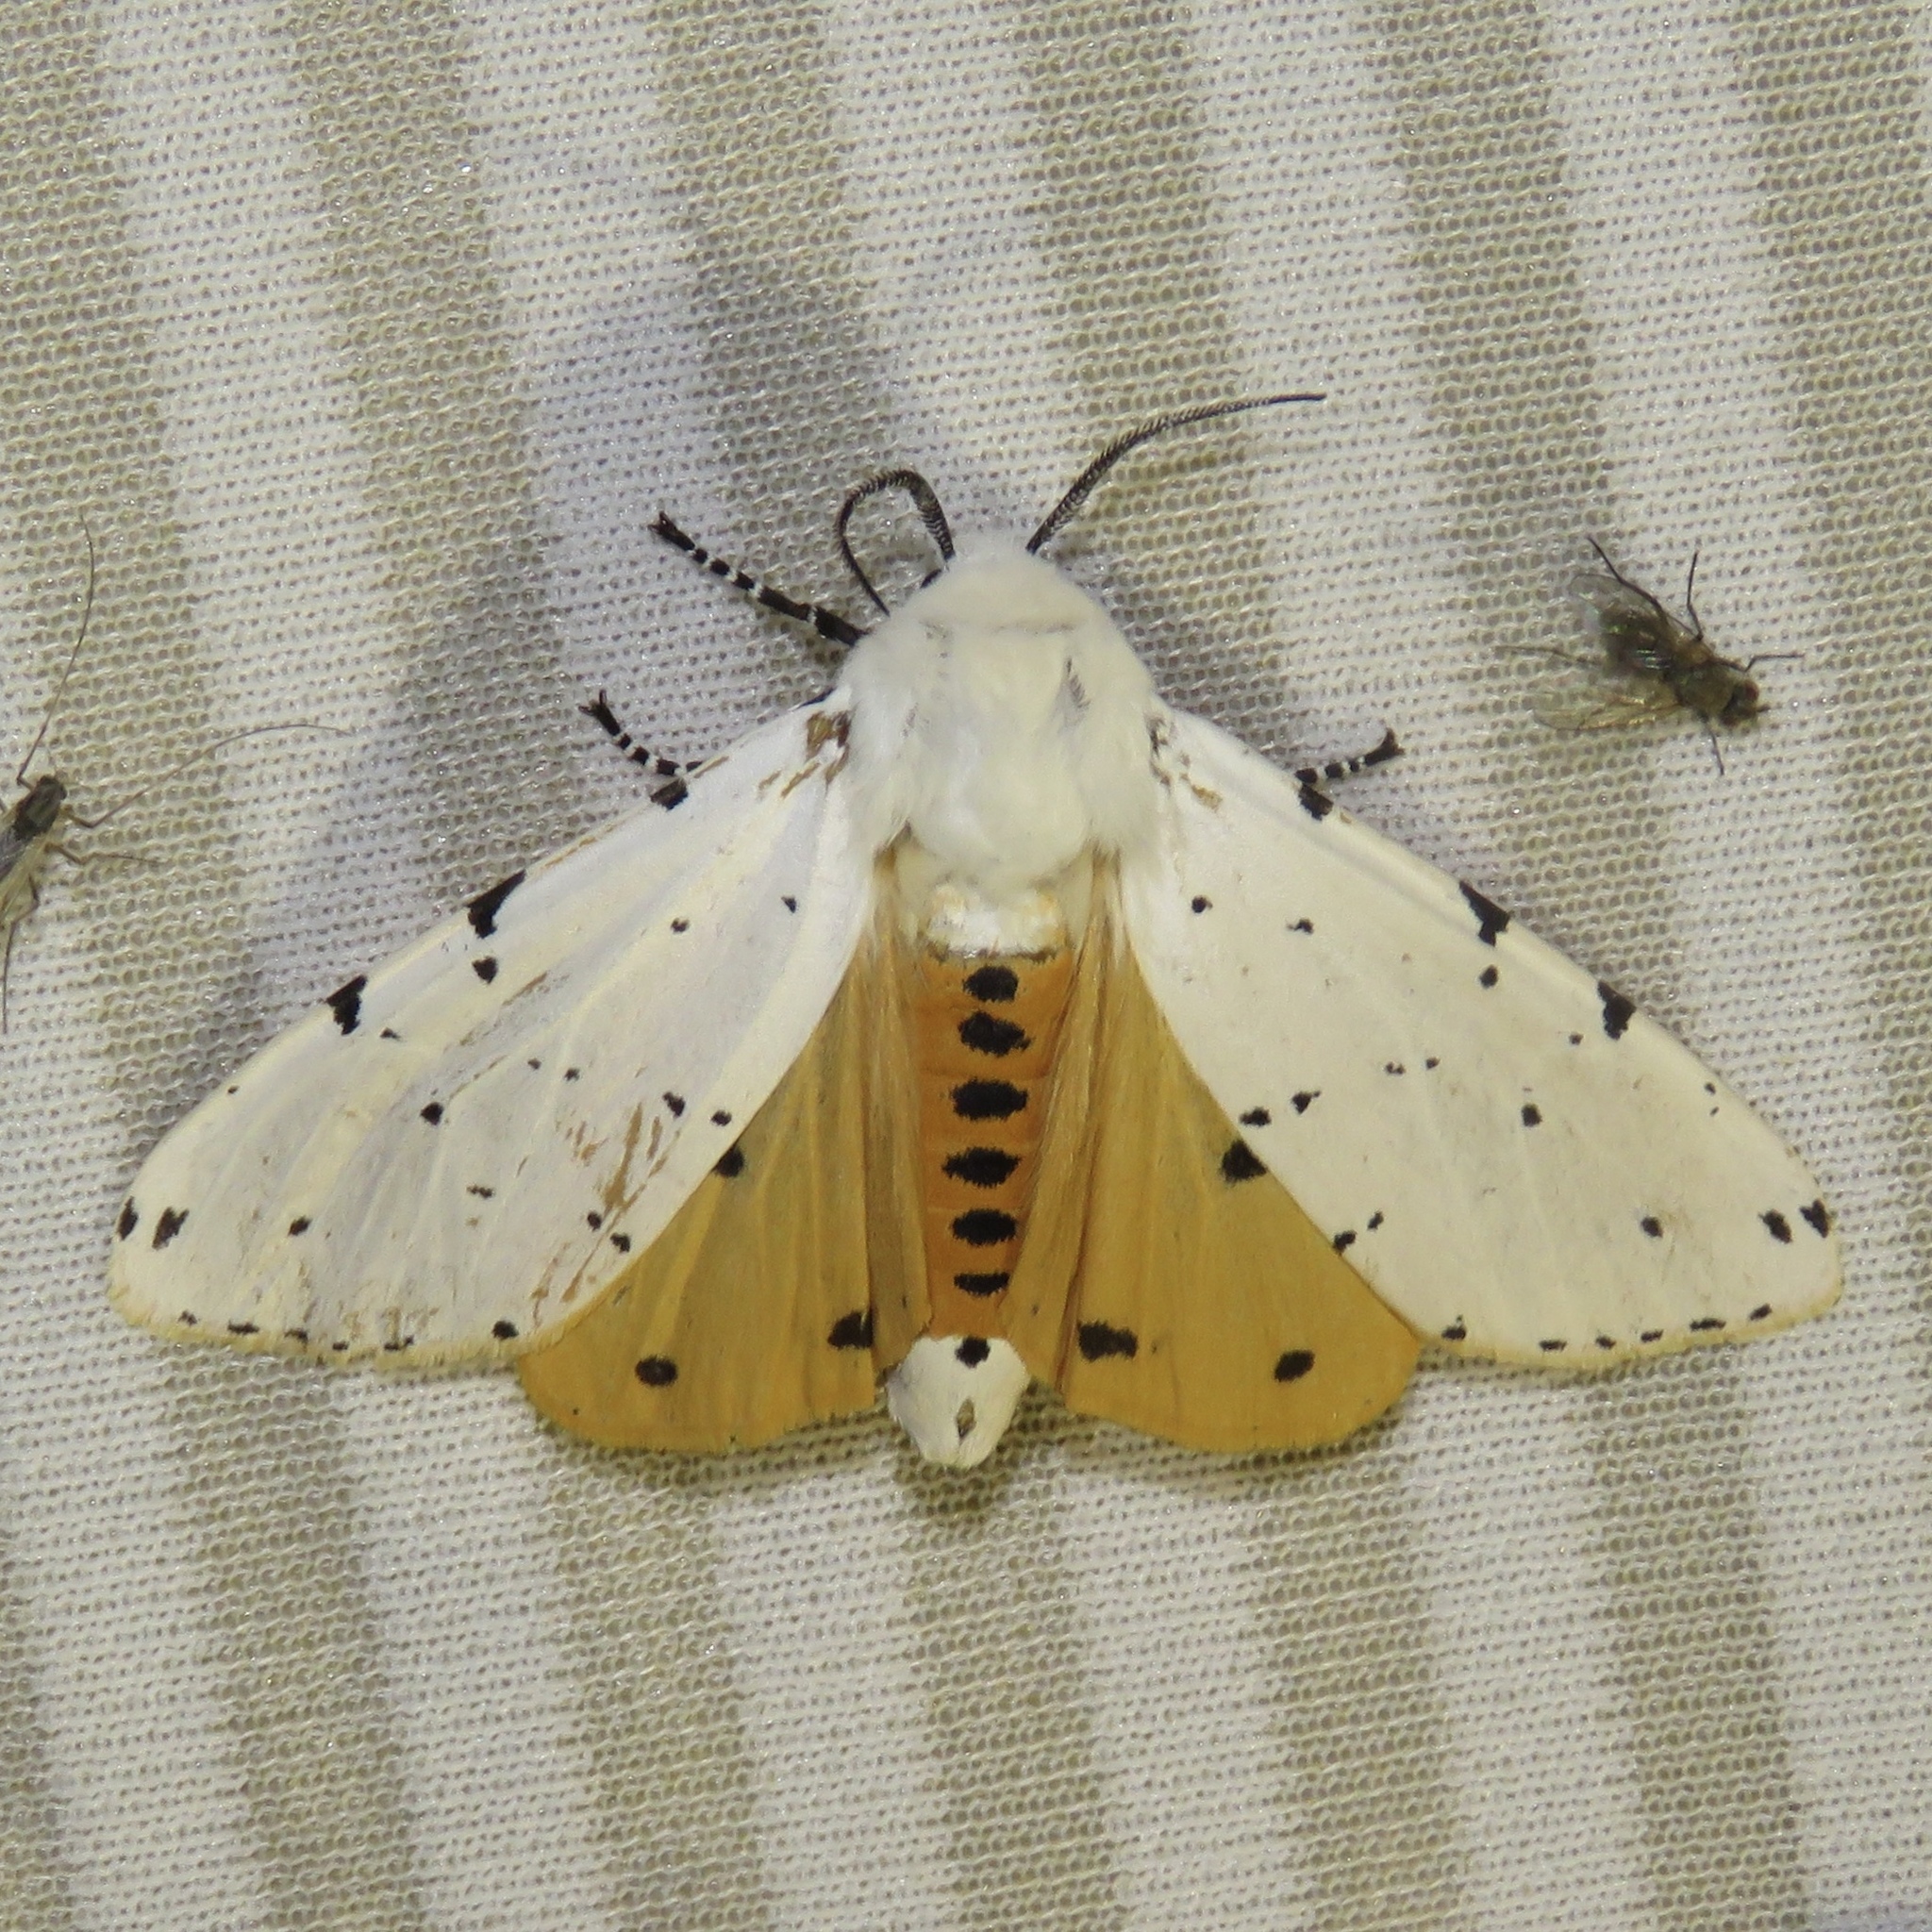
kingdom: Animalia
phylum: Arthropoda
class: Insecta
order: Lepidoptera
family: Erebidae
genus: Estigmene
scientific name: Estigmene acrea
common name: Salt marsh moth
